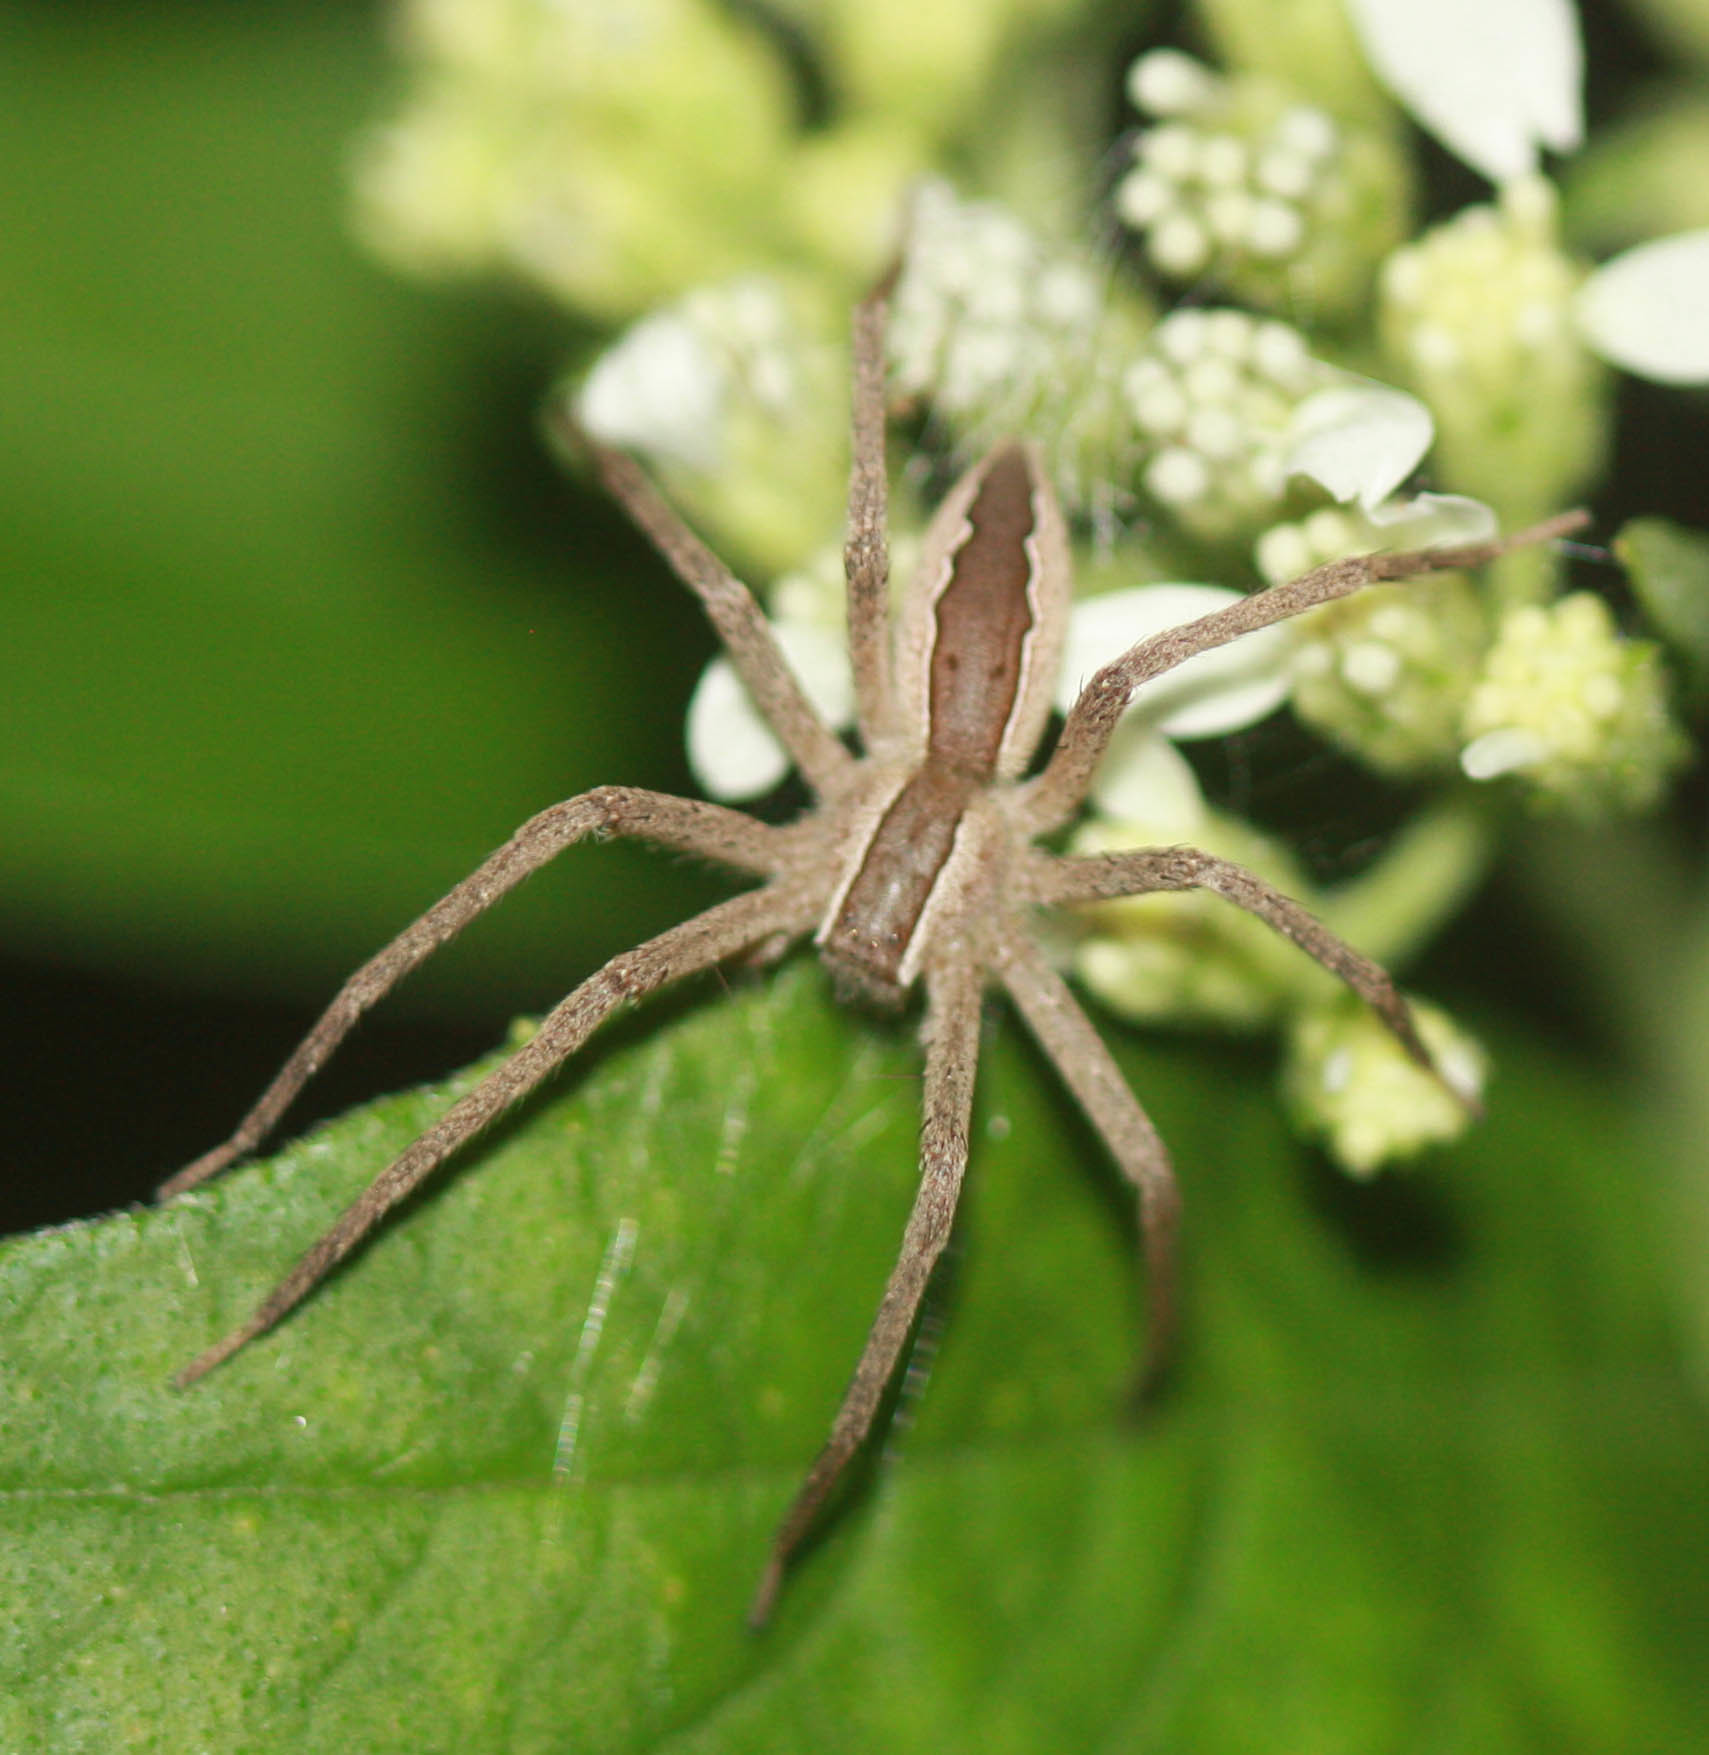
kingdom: Animalia
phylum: Arthropoda
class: Arachnida
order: Araneae
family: Pisauridae
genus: Pisaurina
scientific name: Pisaurina mira
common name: American nursery web spider
